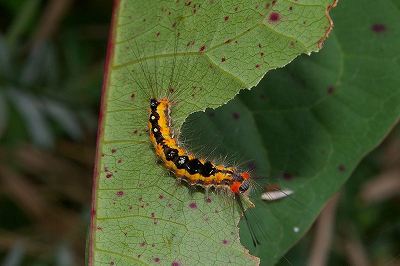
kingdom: Animalia
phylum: Arthropoda
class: Insecta
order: Lepidoptera
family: Erebidae
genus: Orgyia
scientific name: Orgyia thyellina
